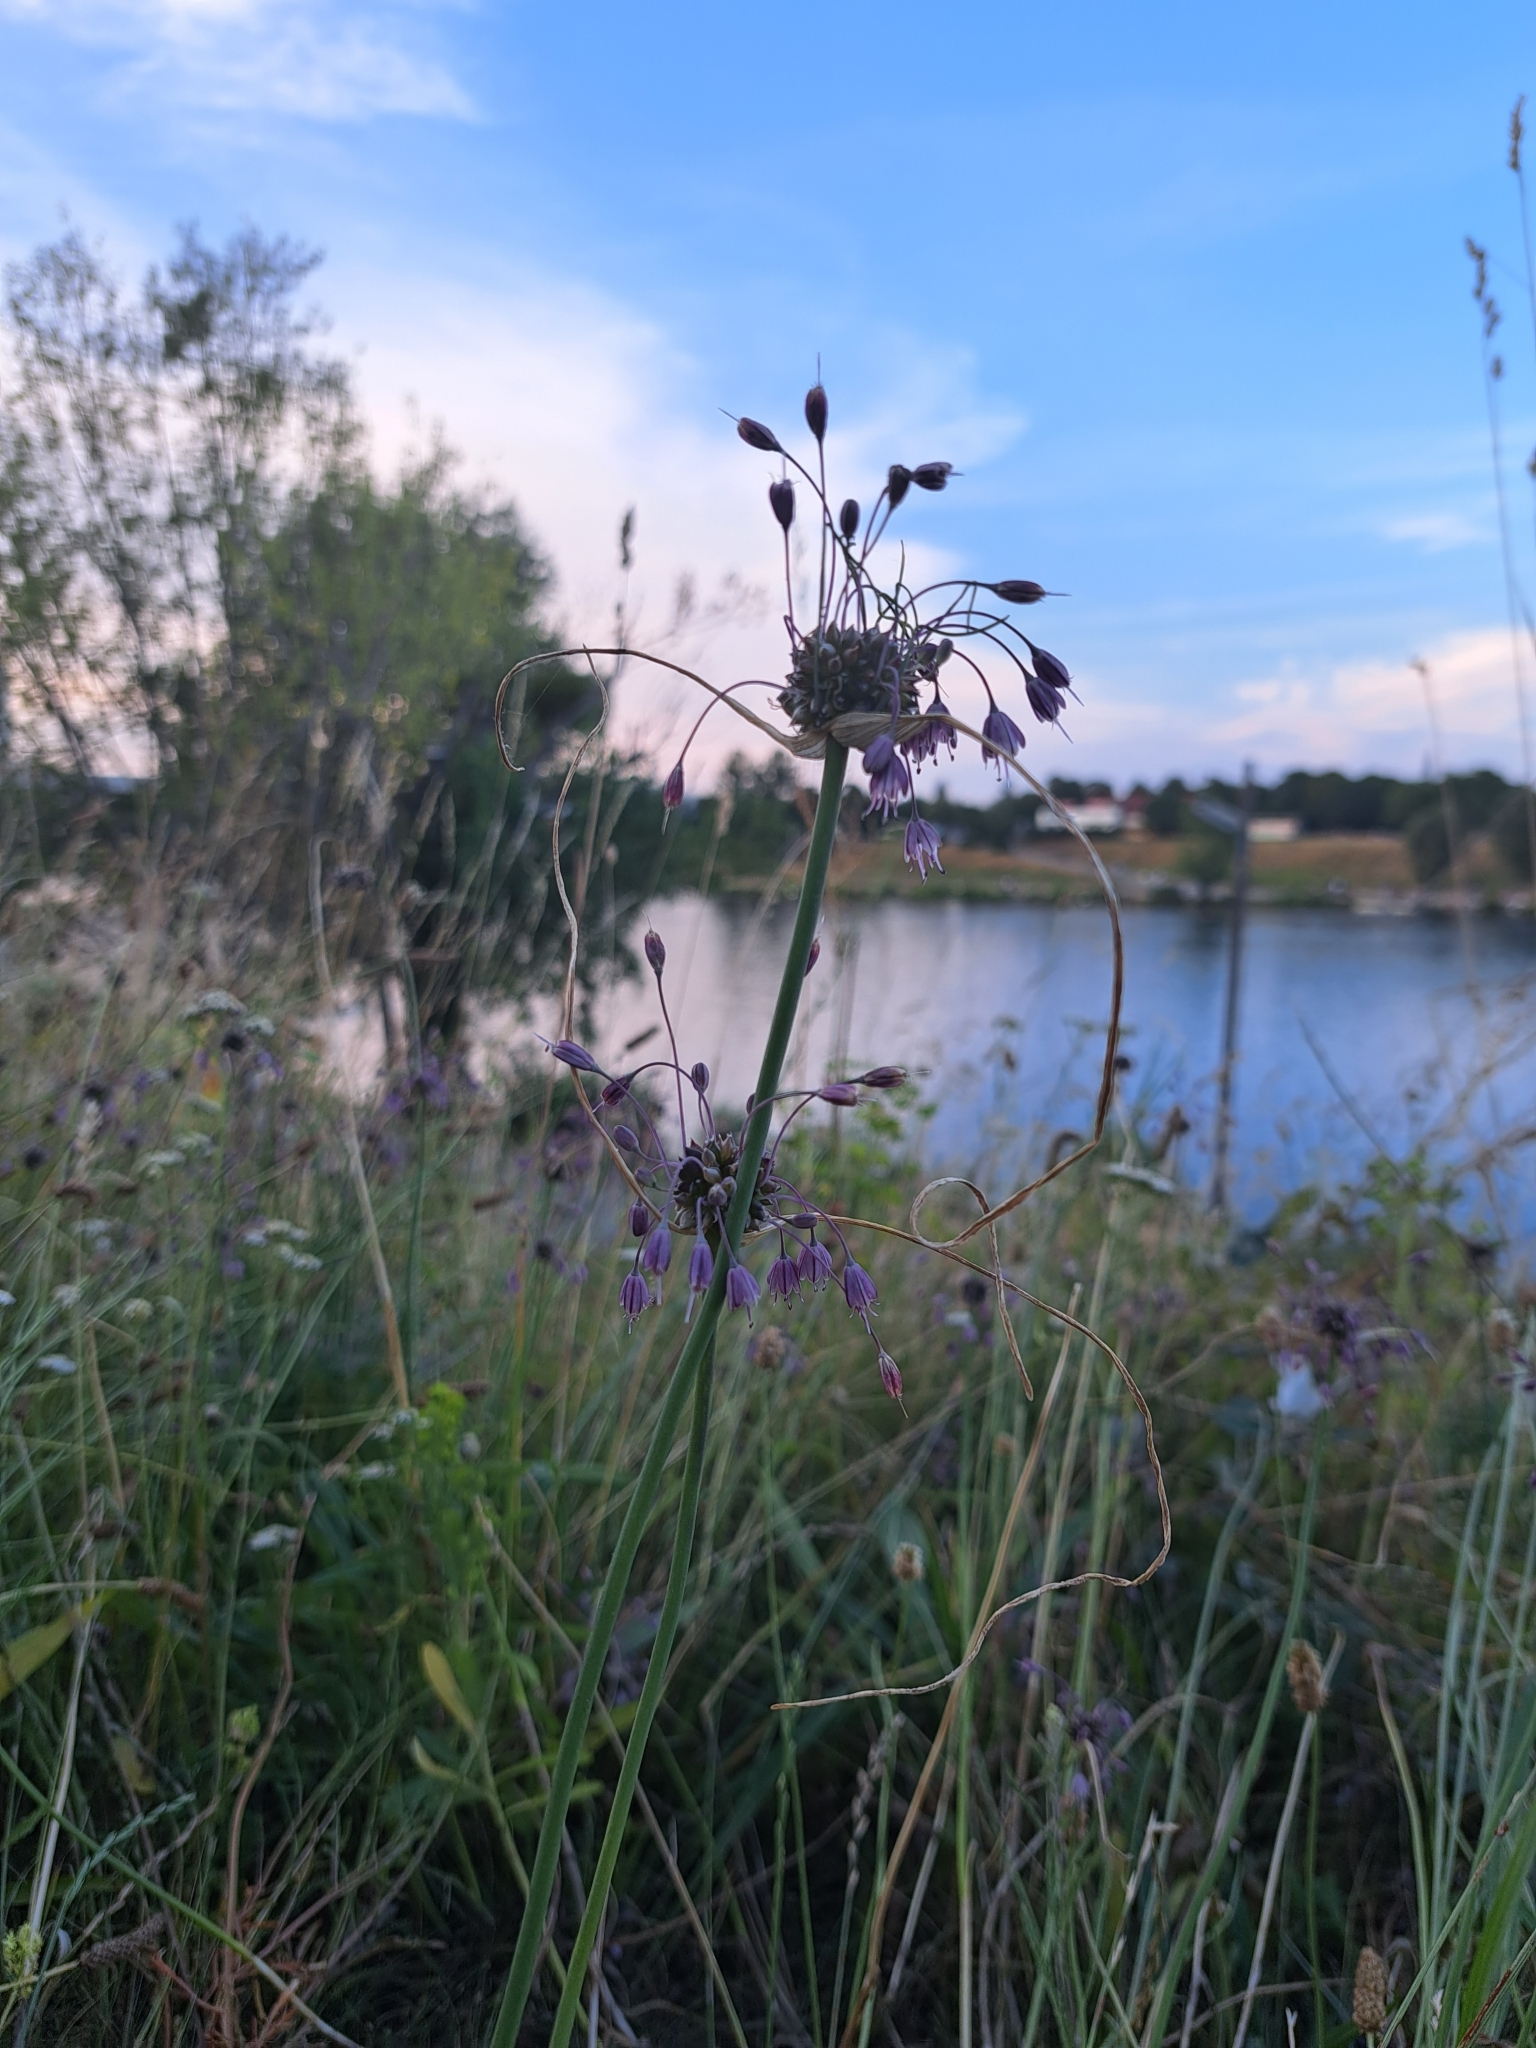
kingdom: Plantae
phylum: Tracheophyta
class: Liliopsida
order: Asparagales
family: Amaryllidaceae
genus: Allium
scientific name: Allium carinatum
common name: Keeled garlic
